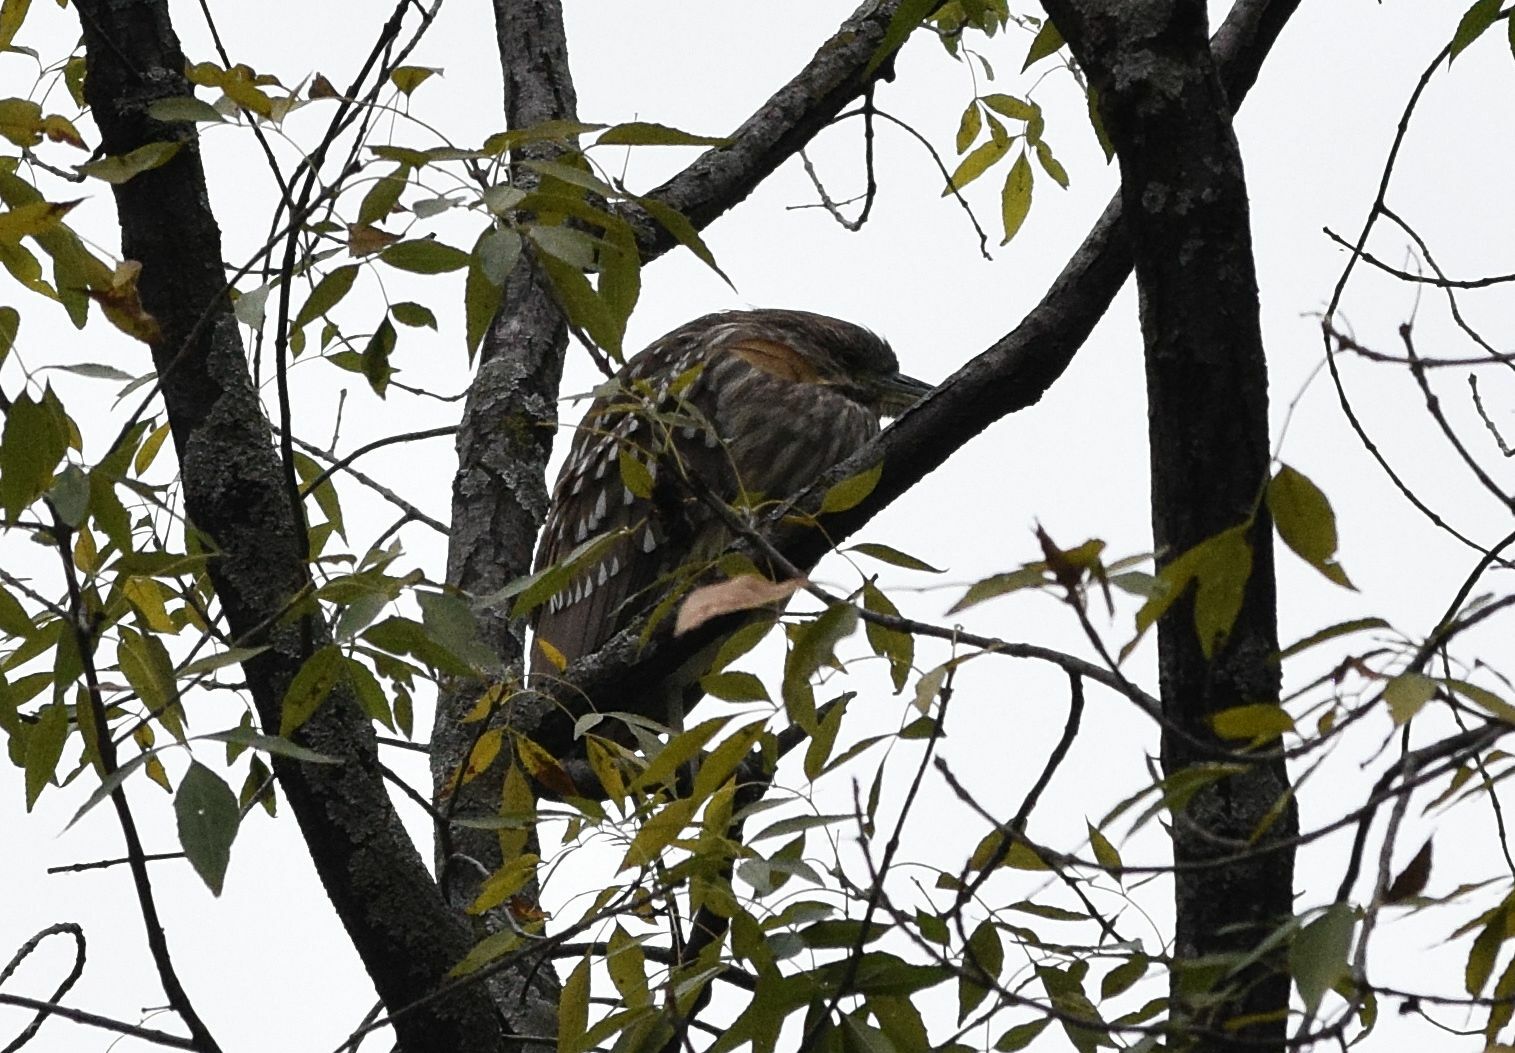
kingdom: Animalia
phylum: Chordata
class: Aves
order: Pelecaniformes
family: Ardeidae
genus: Nycticorax
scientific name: Nycticorax nycticorax
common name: Black-crowned night heron
